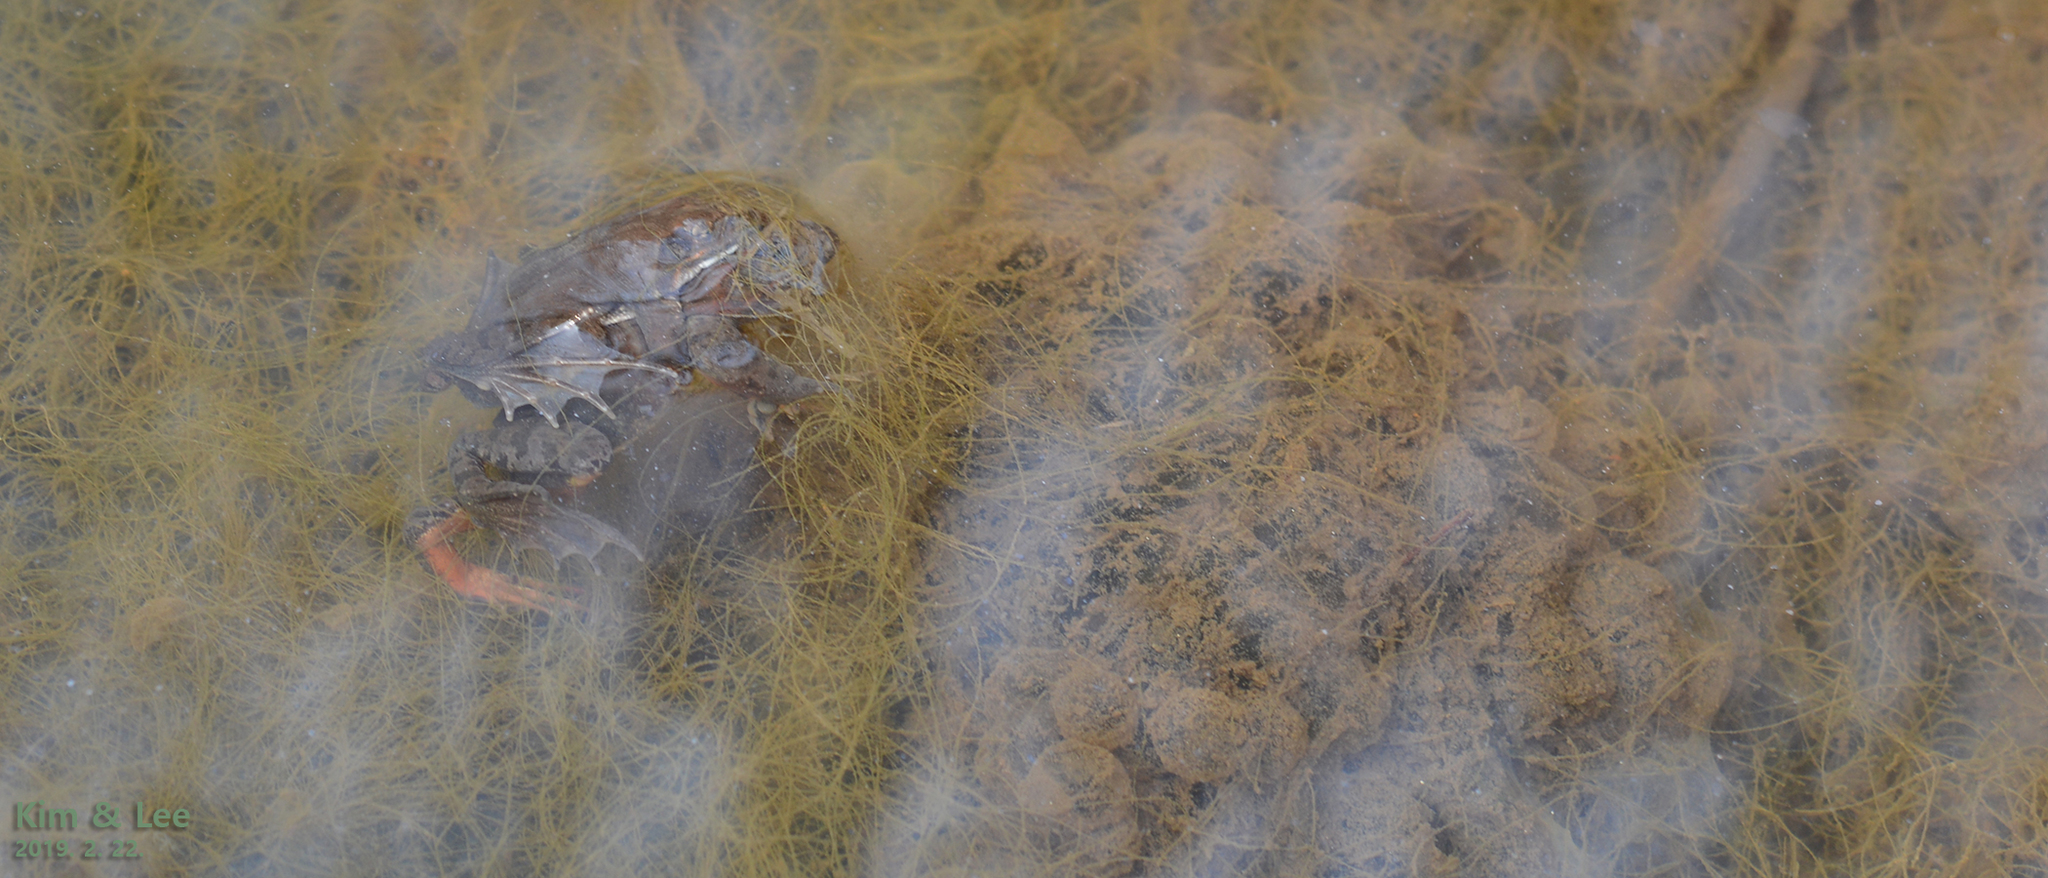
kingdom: Animalia
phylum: Chordata
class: Amphibia
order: Anura
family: Ranidae
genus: Rana
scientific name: Rana uenoi
